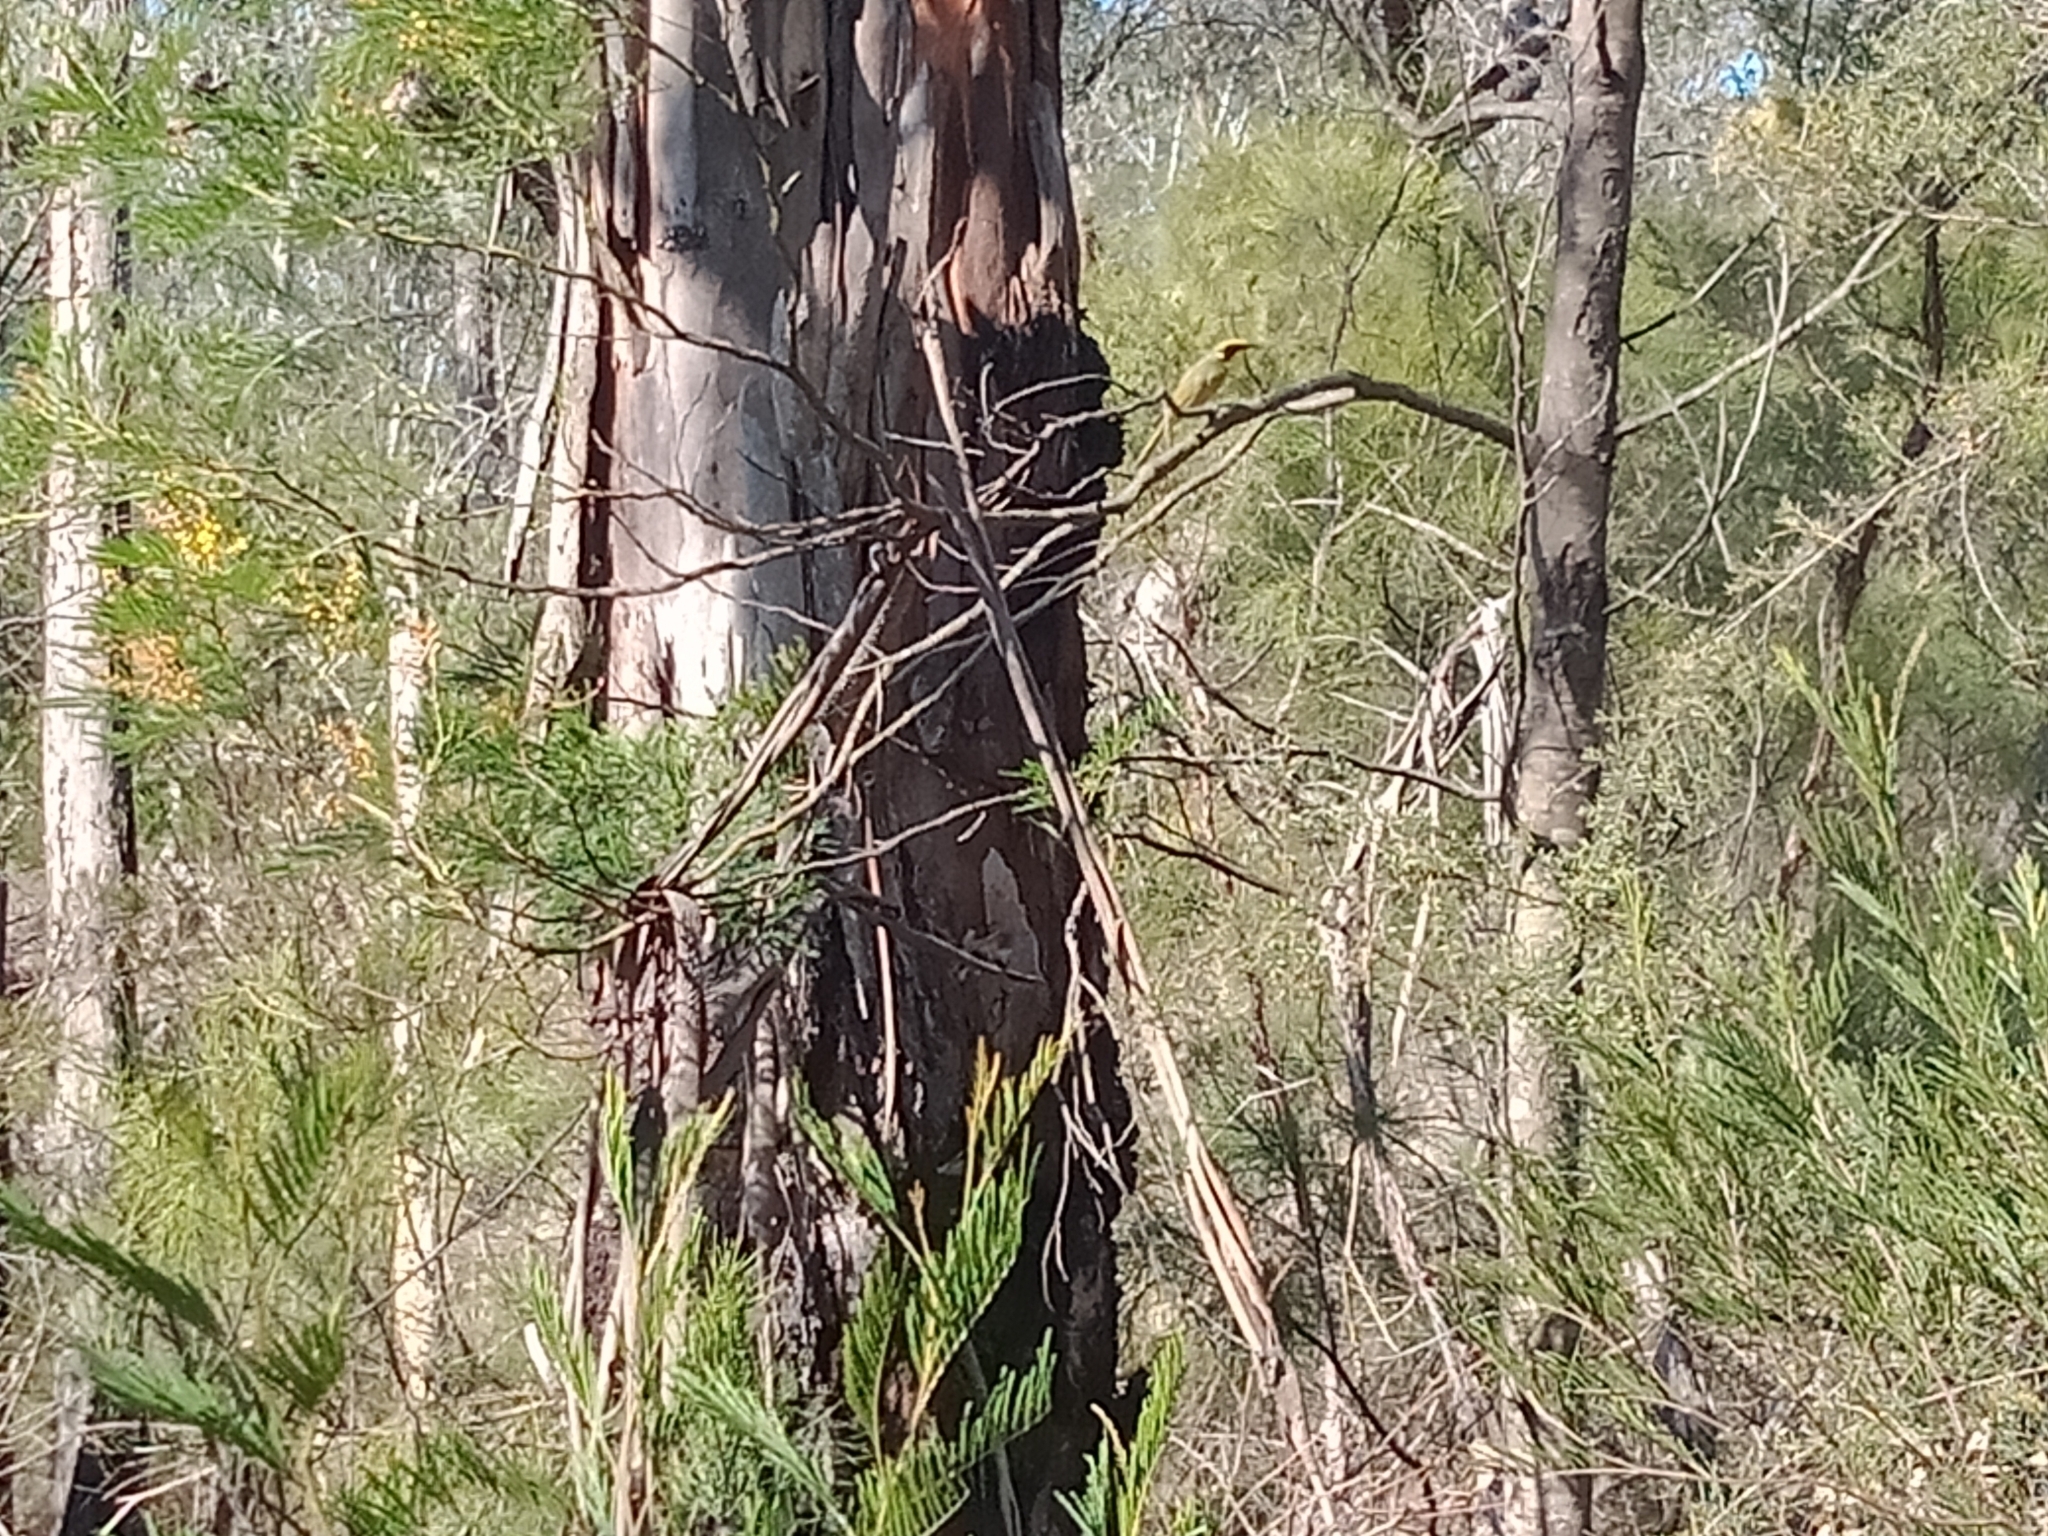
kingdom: Animalia
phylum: Chordata
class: Aves
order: Passeriformes
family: Meliphagidae
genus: Lichenostomus
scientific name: Lichenostomus melanops
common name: Yellow-tufted honeyeater
